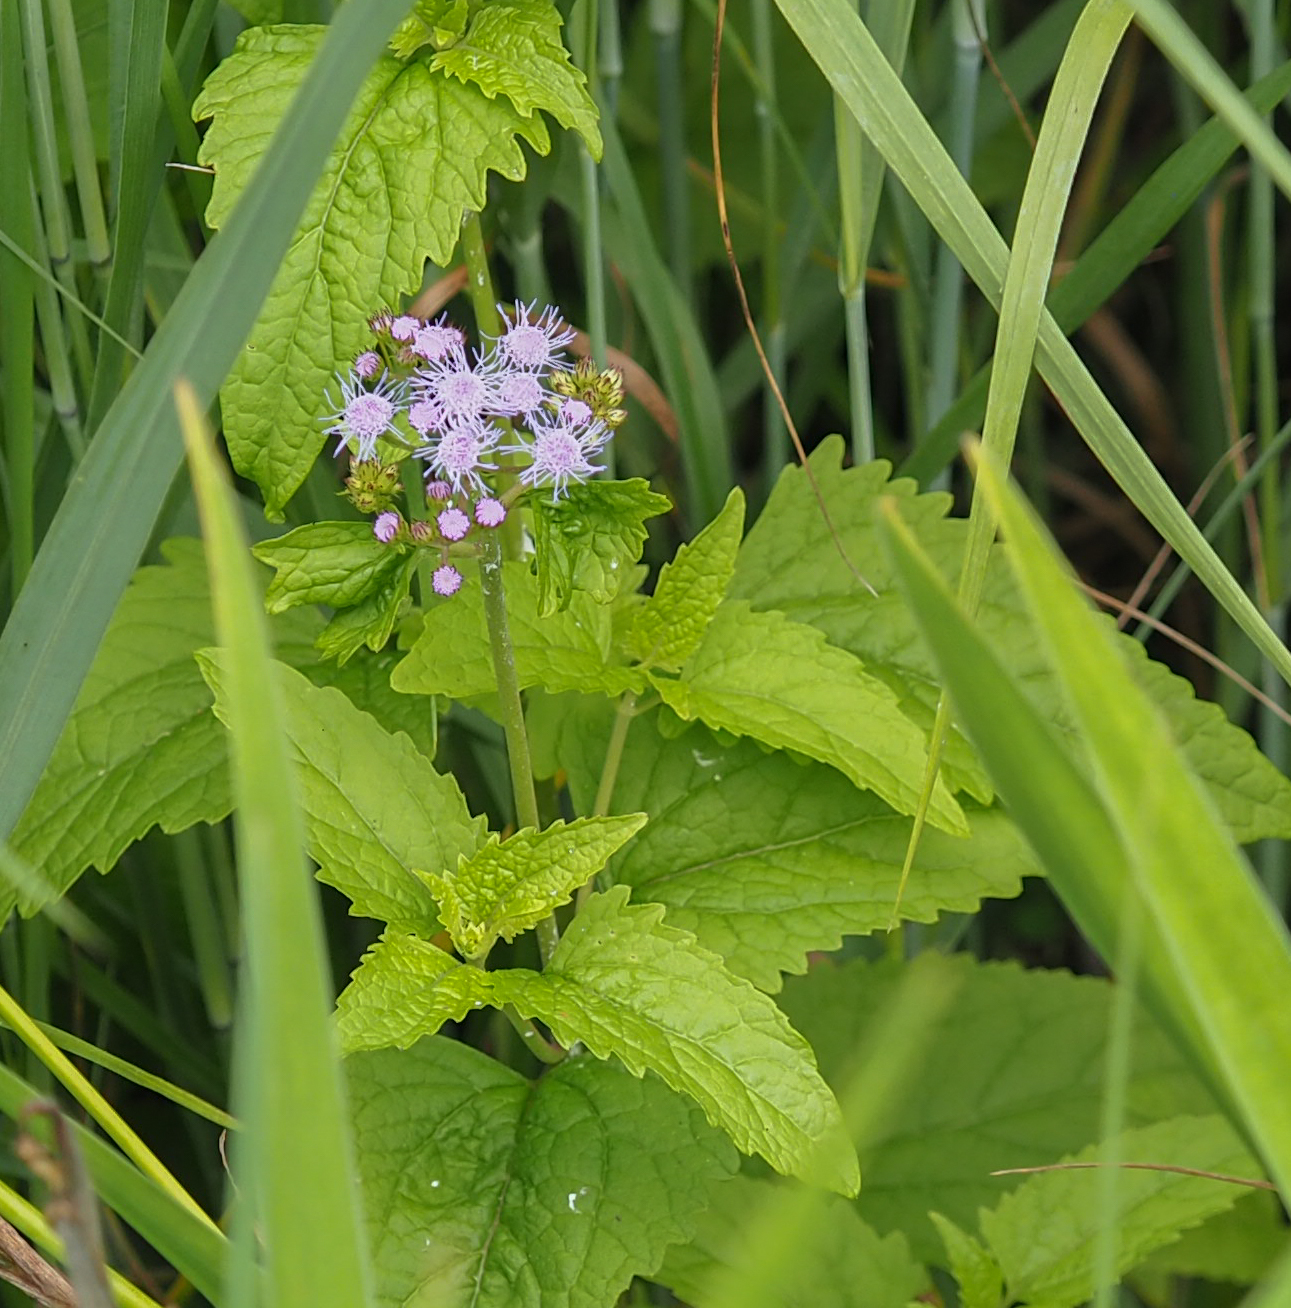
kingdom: Plantae
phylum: Tracheophyta
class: Magnoliopsida
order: Asterales
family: Asteraceae
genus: Conoclinium
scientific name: Conoclinium coelestinum
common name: Blue mistflower
